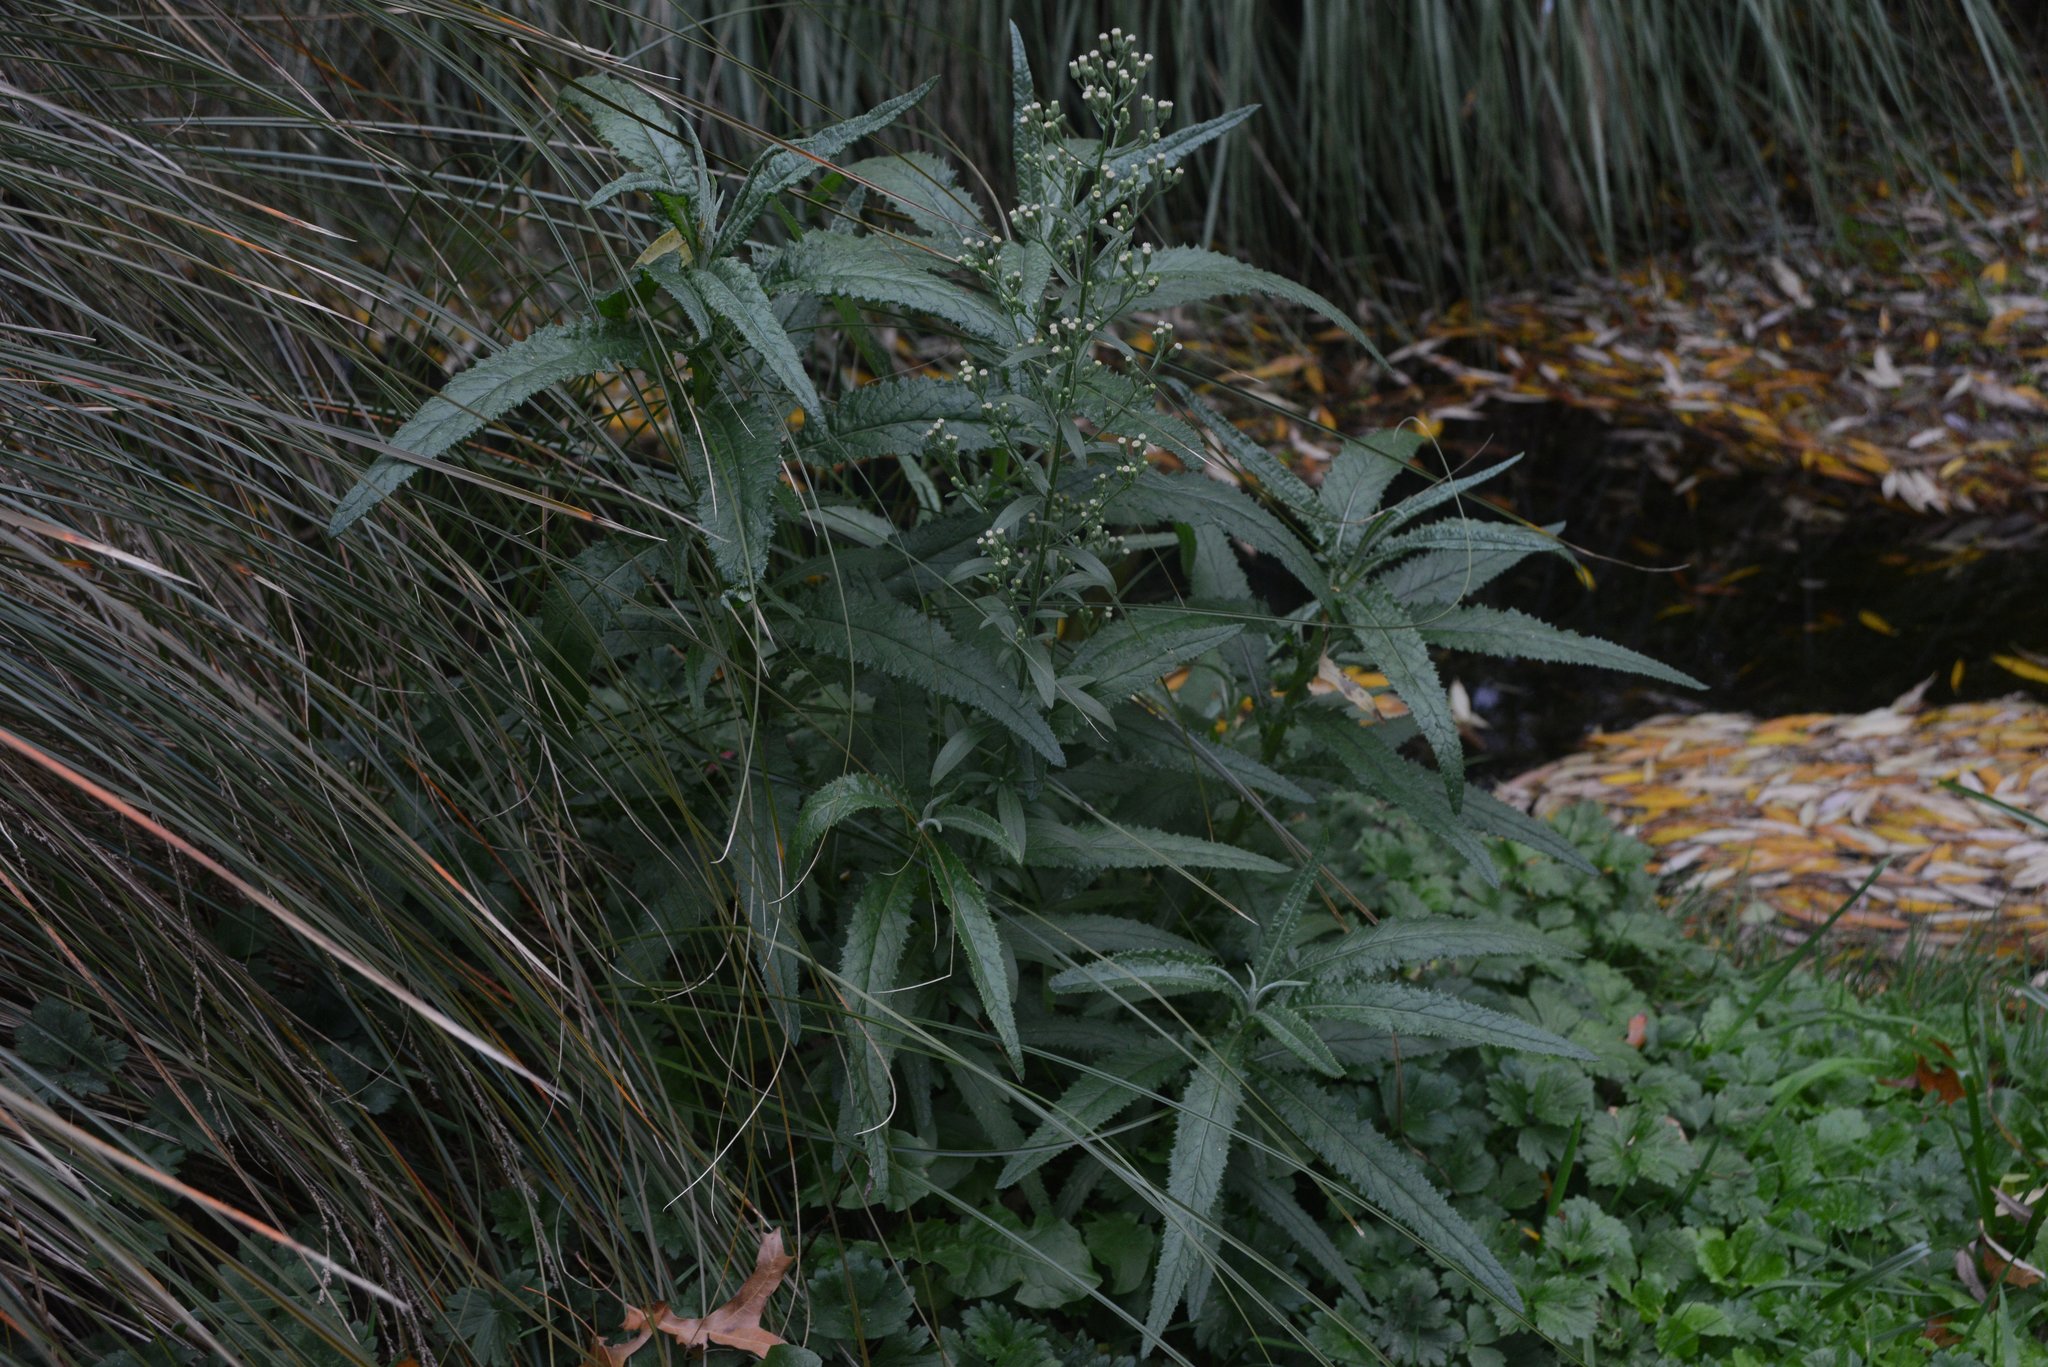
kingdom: Plantae
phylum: Tracheophyta
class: Magnoliopsida
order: Asterales
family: Asteraceae
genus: Senecio
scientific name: Senecio minimus
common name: Toothed fireweed
